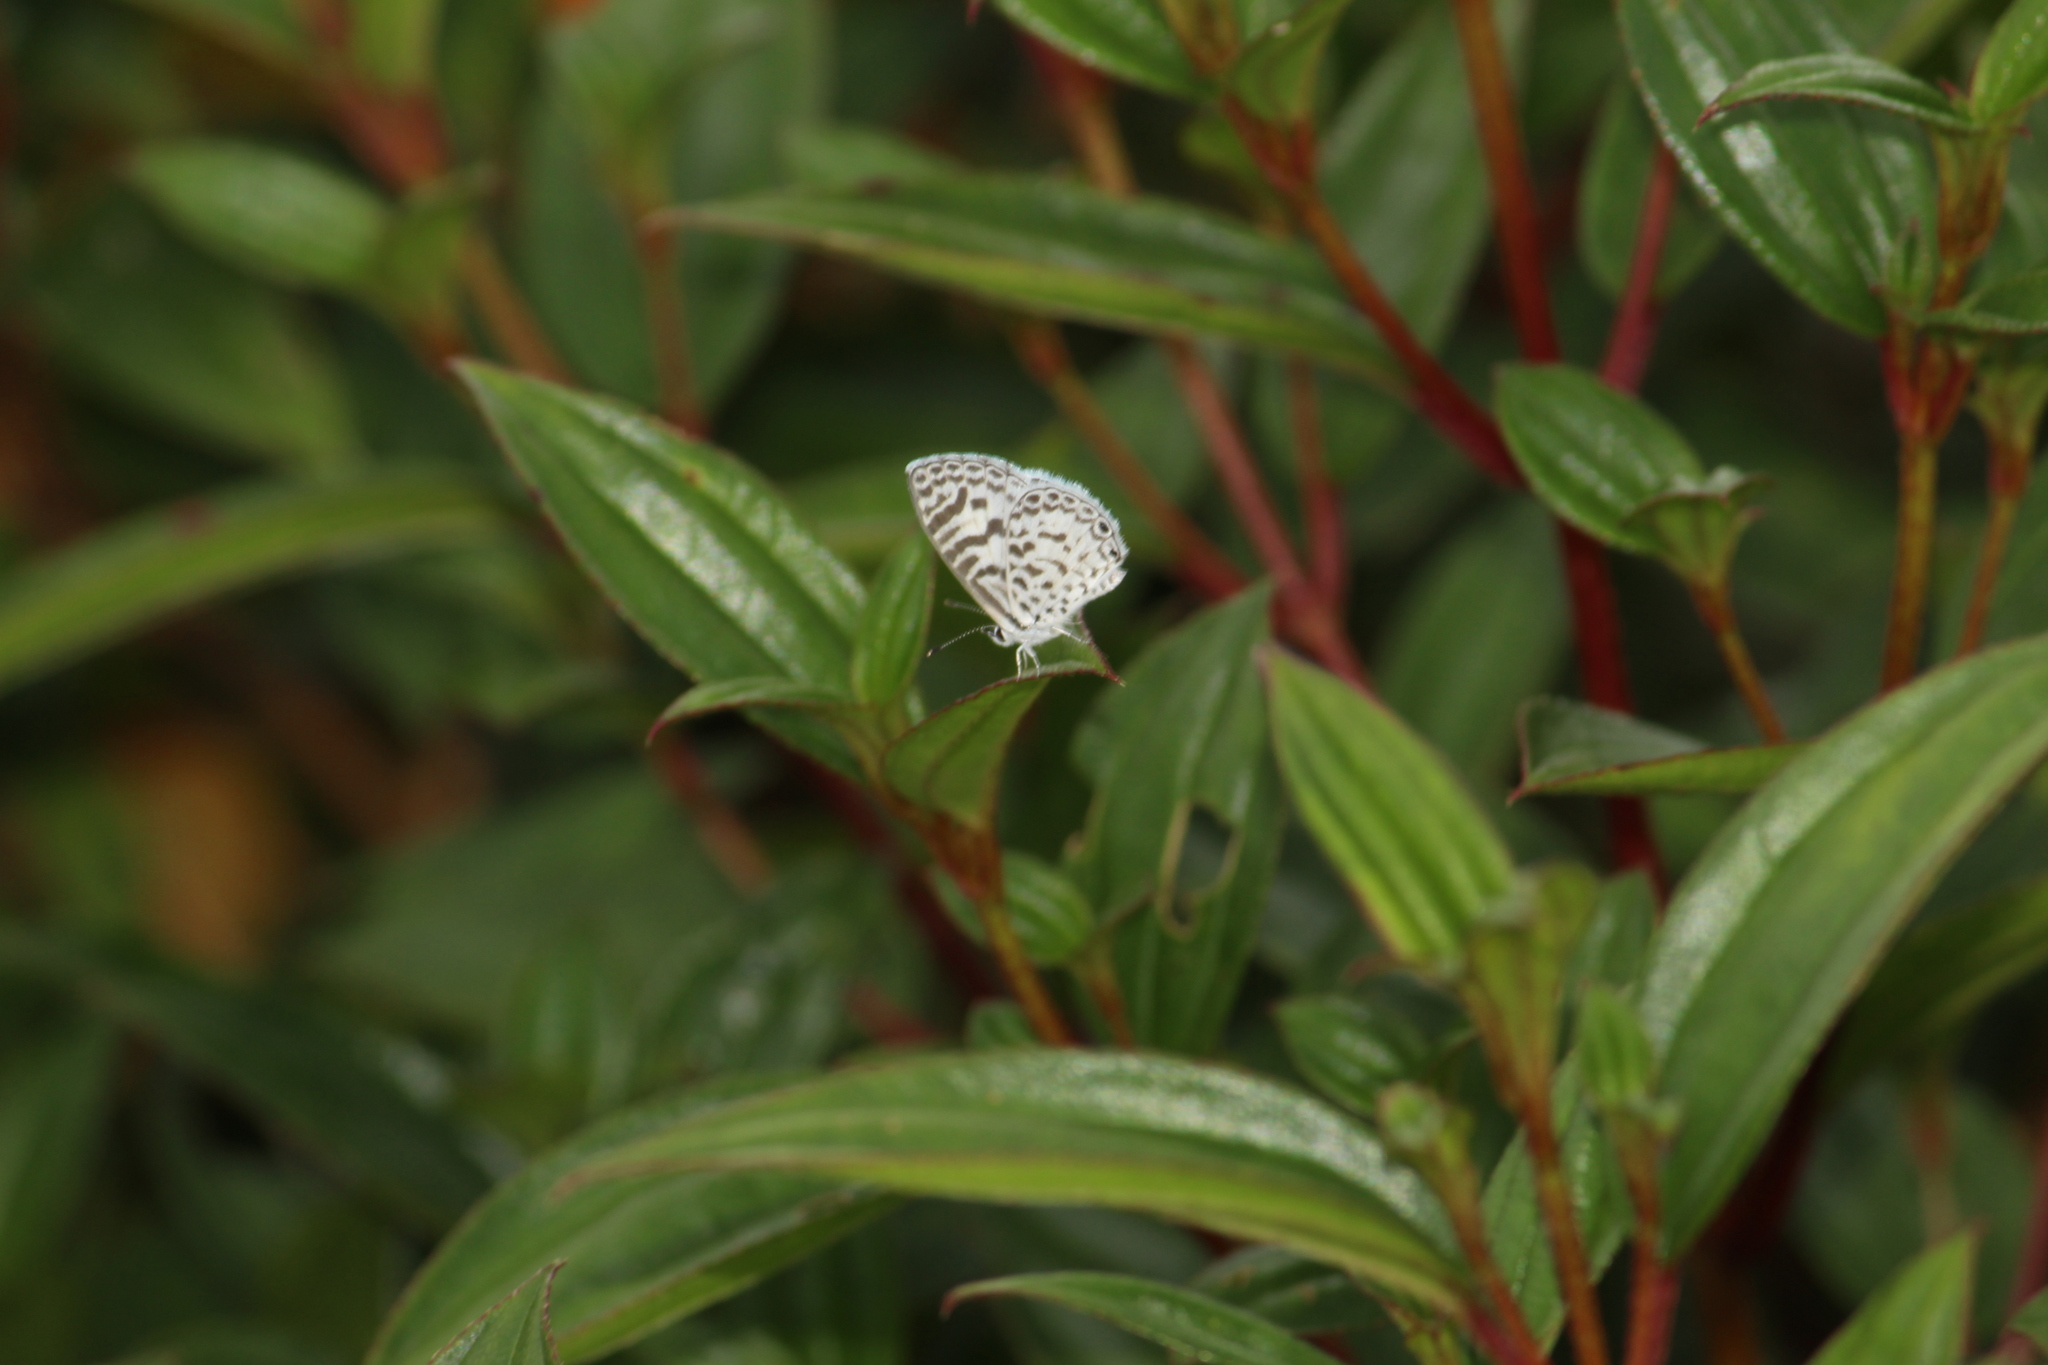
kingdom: Animalia
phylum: Arthropoda
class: Insecta
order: Lepidoptera
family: Lycaenidae
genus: Leptotes
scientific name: Leptotes cassius
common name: Cassius blue
